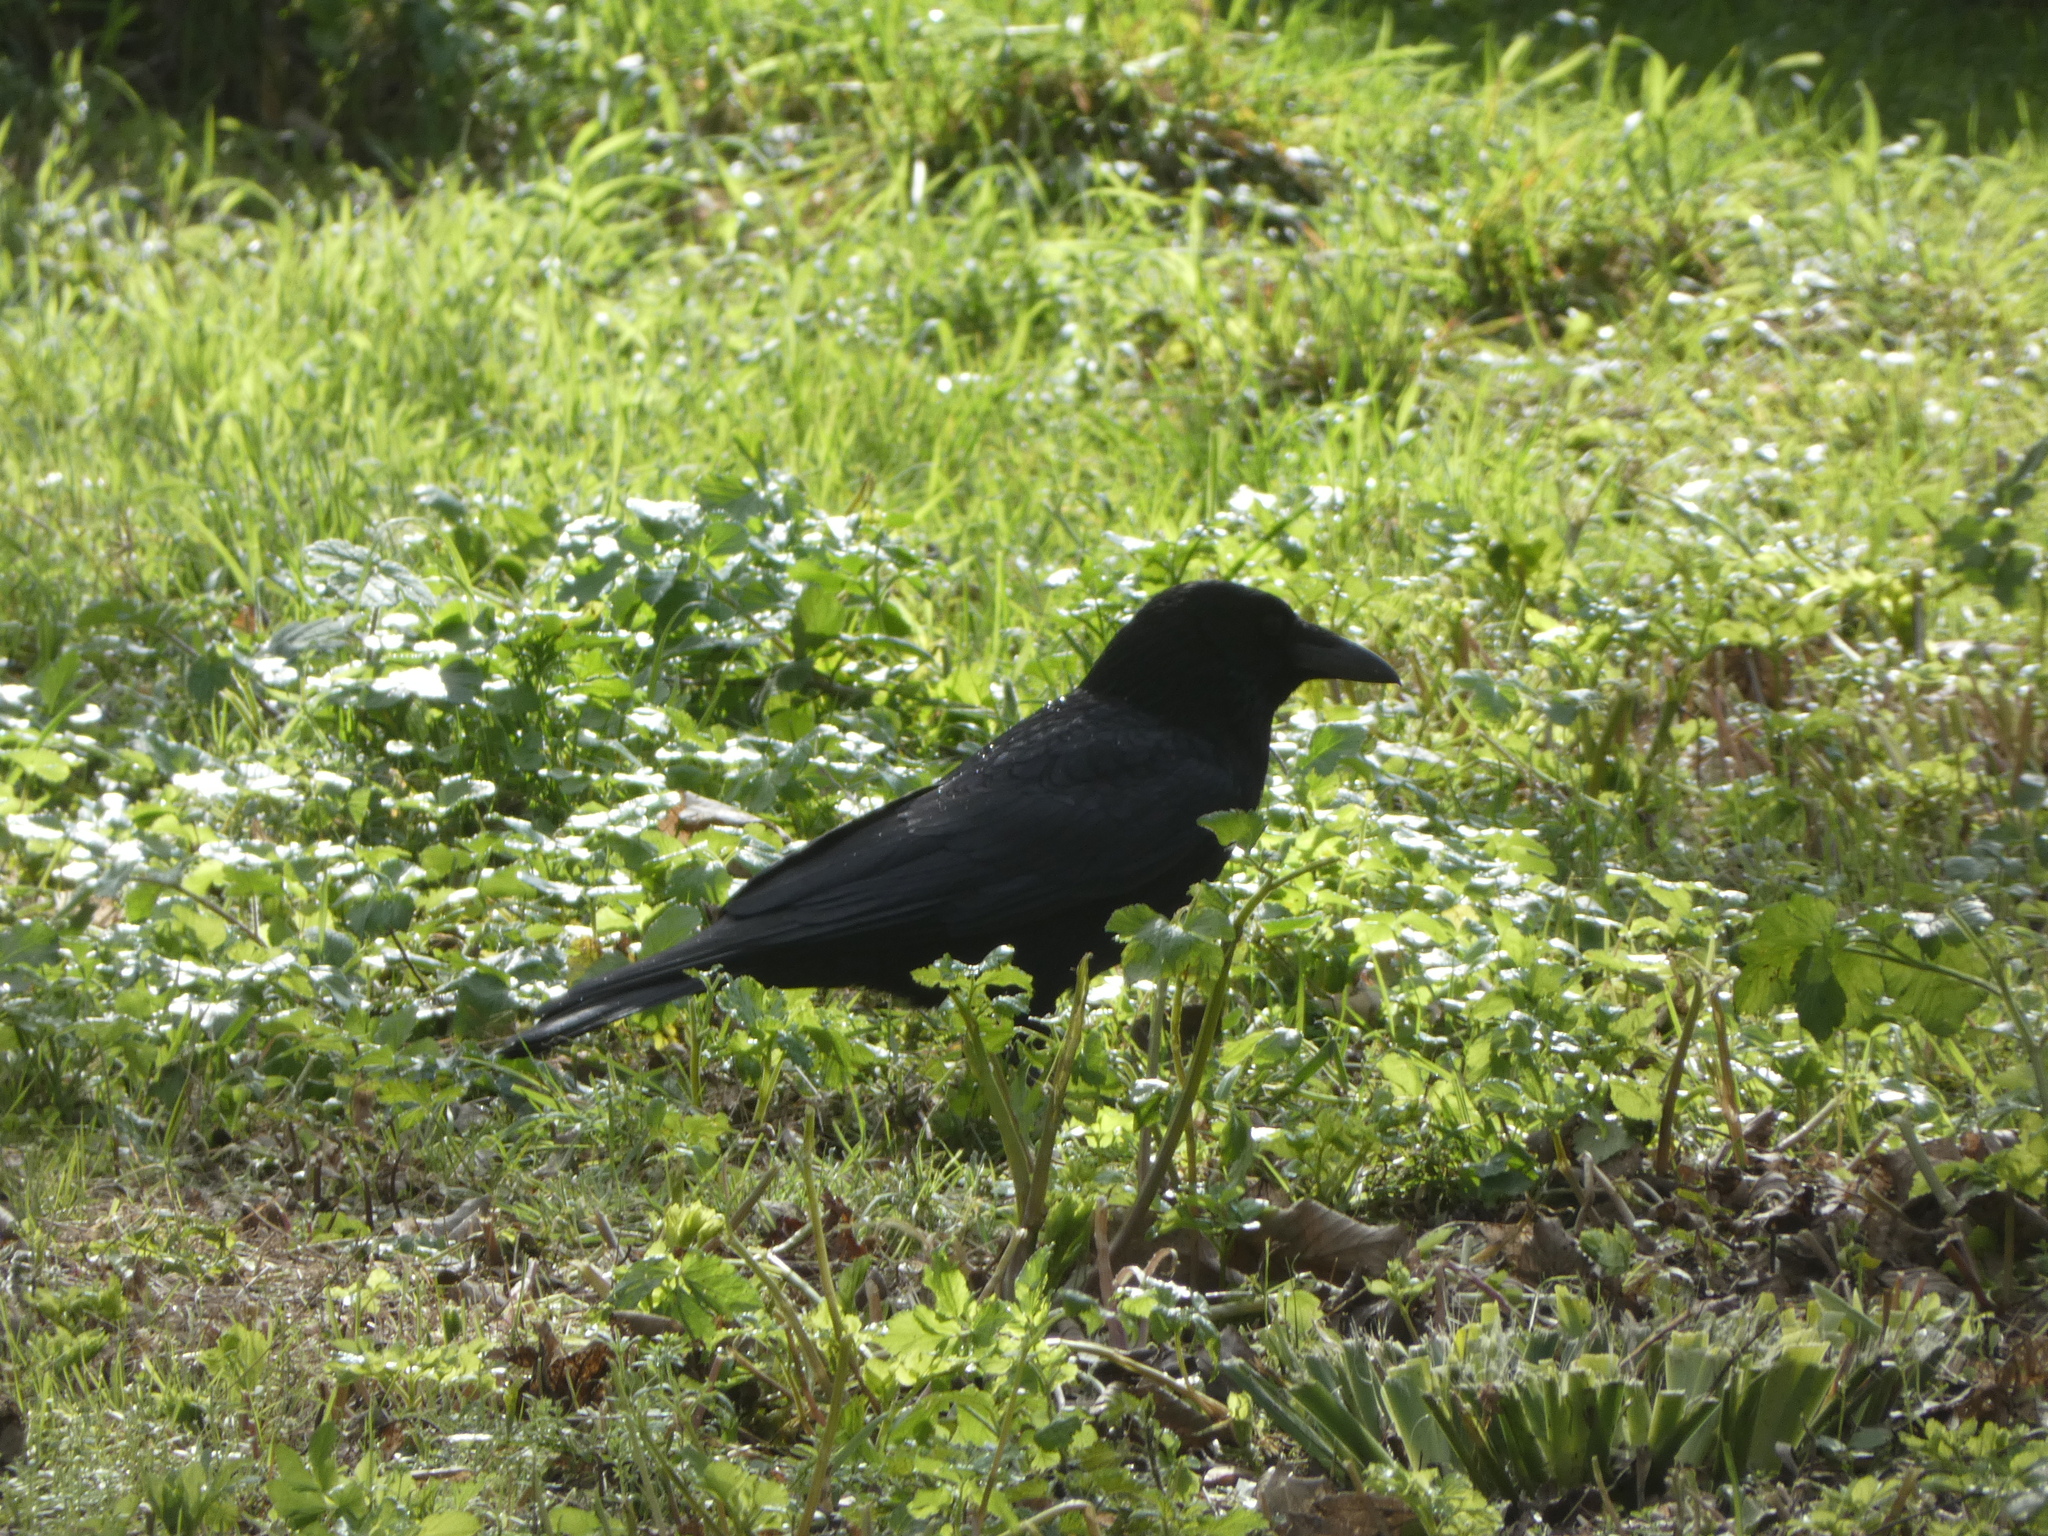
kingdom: Animalia
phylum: Chordata
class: Aves
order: Passeriformes
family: Corvidae
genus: Corvus
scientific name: Corvus corone
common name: Carrion crow
